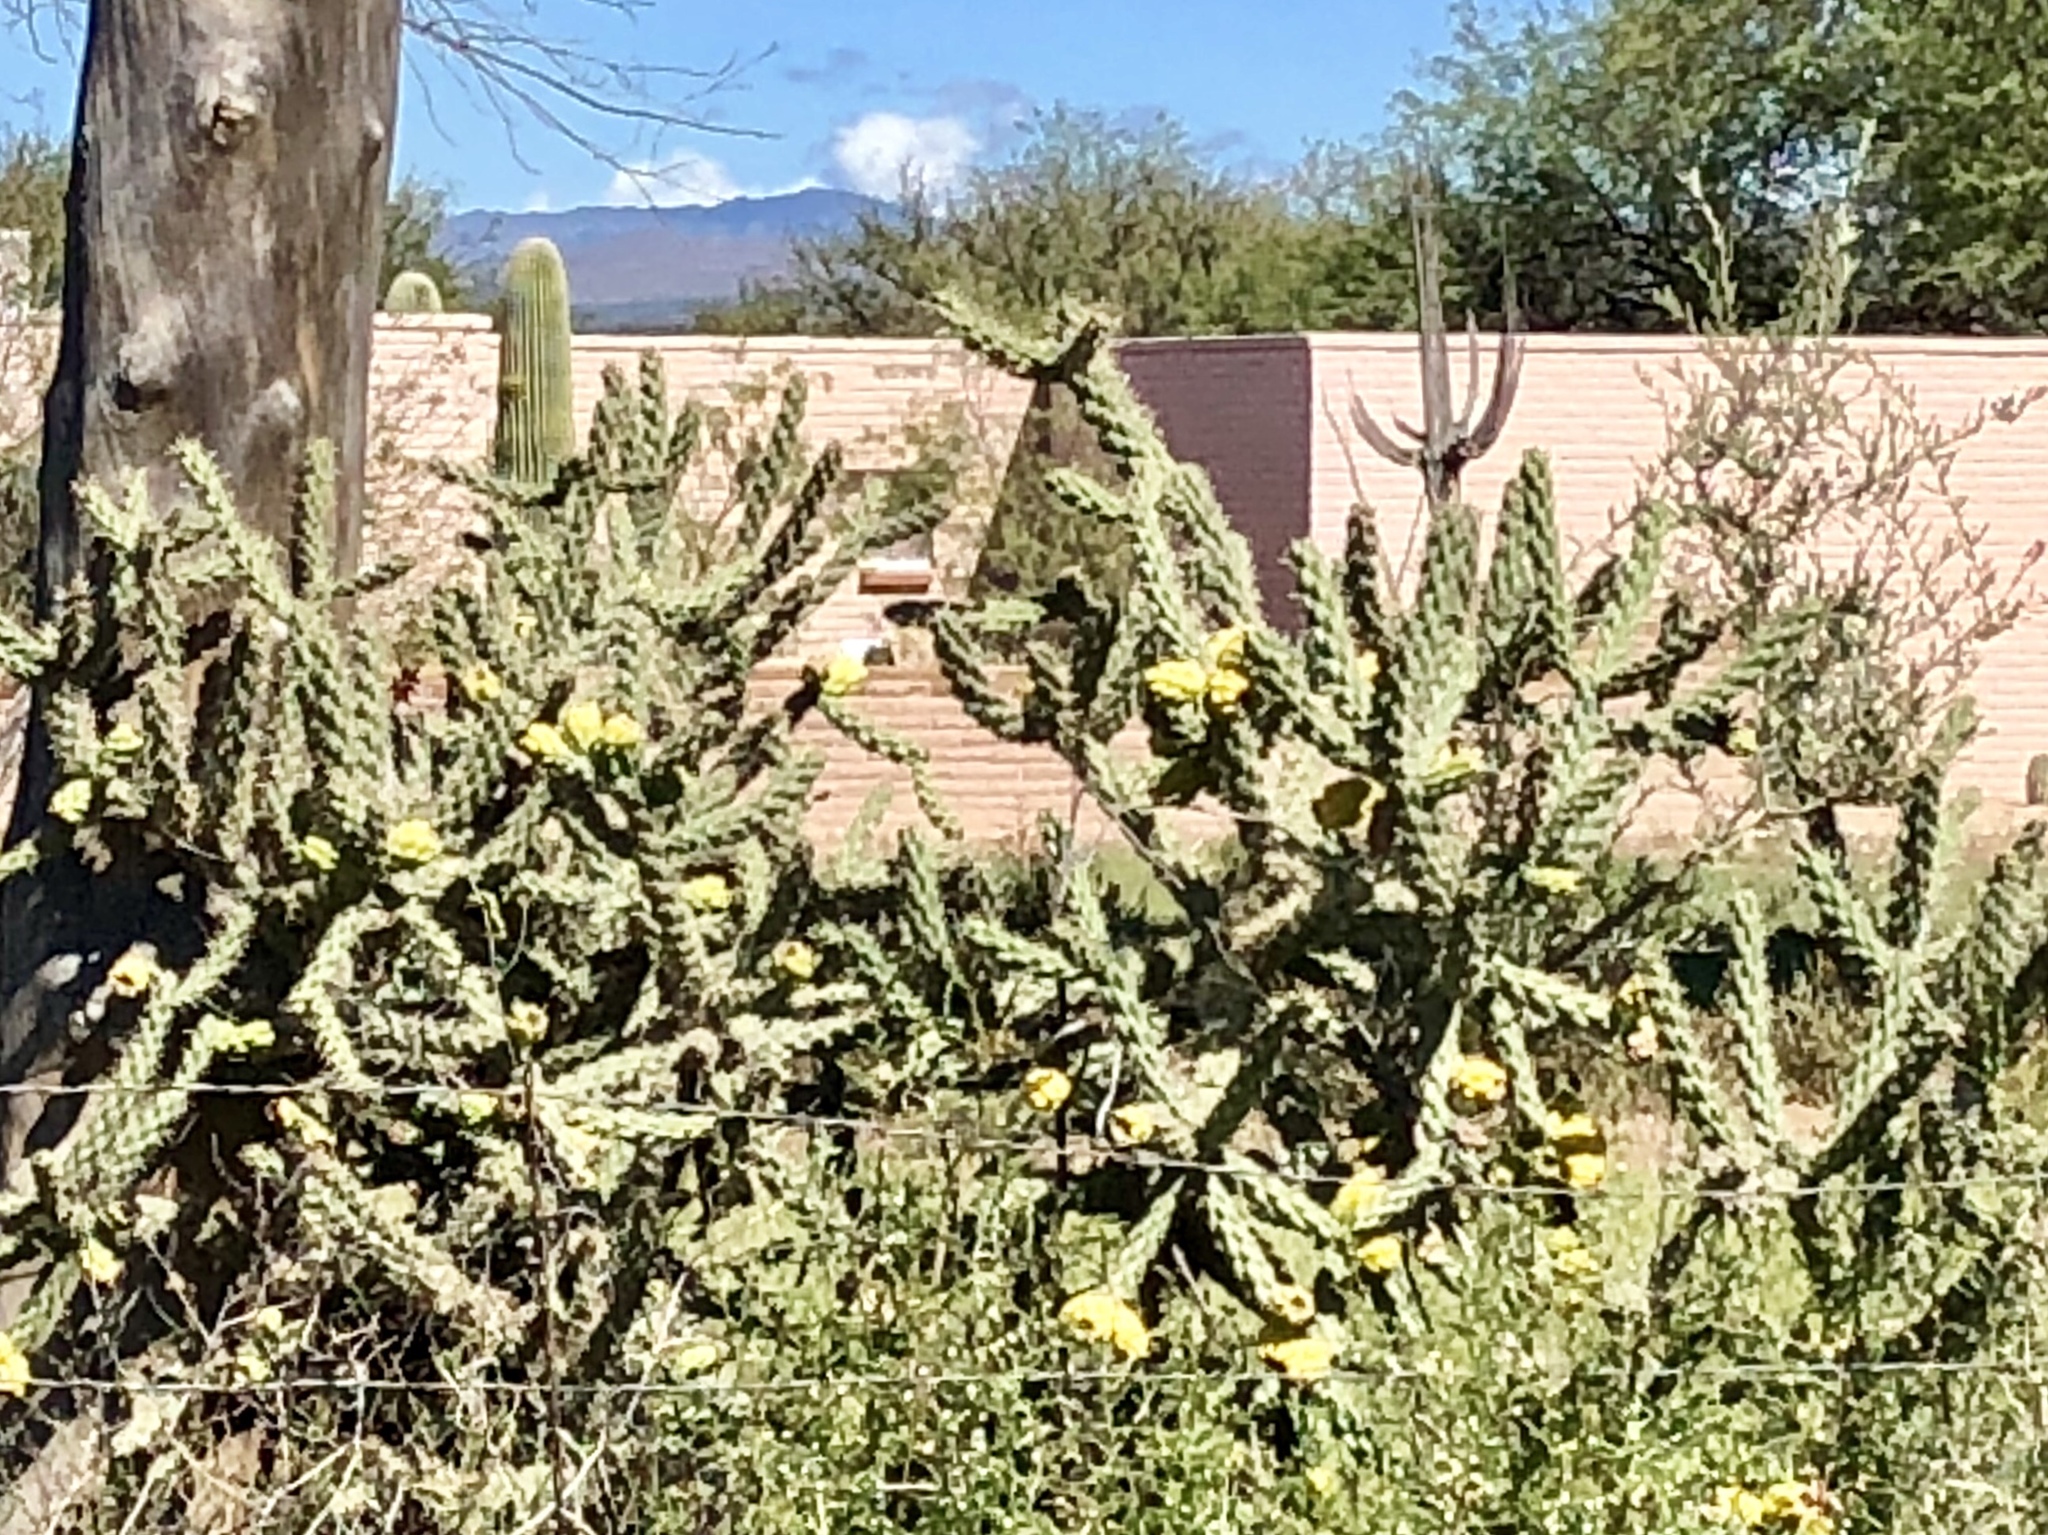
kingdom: Plantae
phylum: Tracheophyta
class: Magnoliopsida
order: Caryophyllales
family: Cactaceae
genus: Cylindropuntia
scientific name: Cylindropuntia imbricata
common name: Candelabrum cactus
